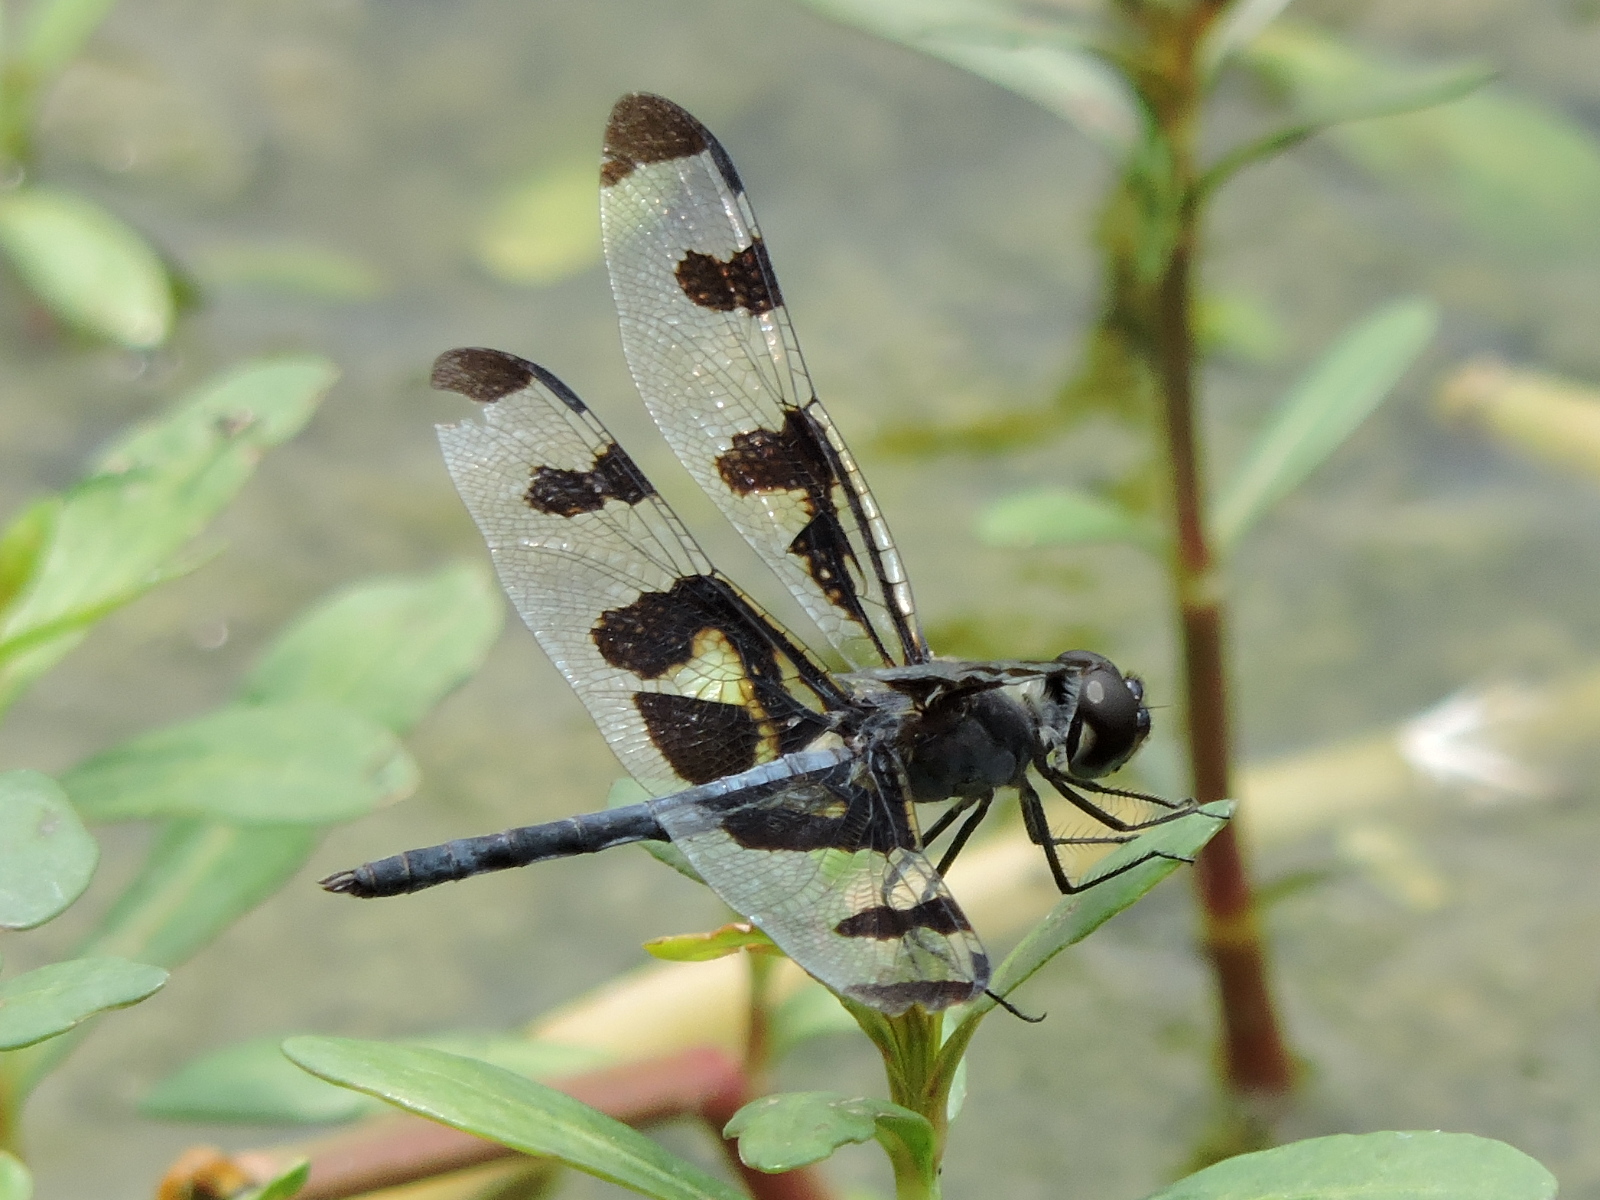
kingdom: Animalia
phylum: Arthropoda
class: Insecta
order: Odonata
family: Libellulidae
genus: Celithemis
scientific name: Celithemis fasciata
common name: Banded pennant
